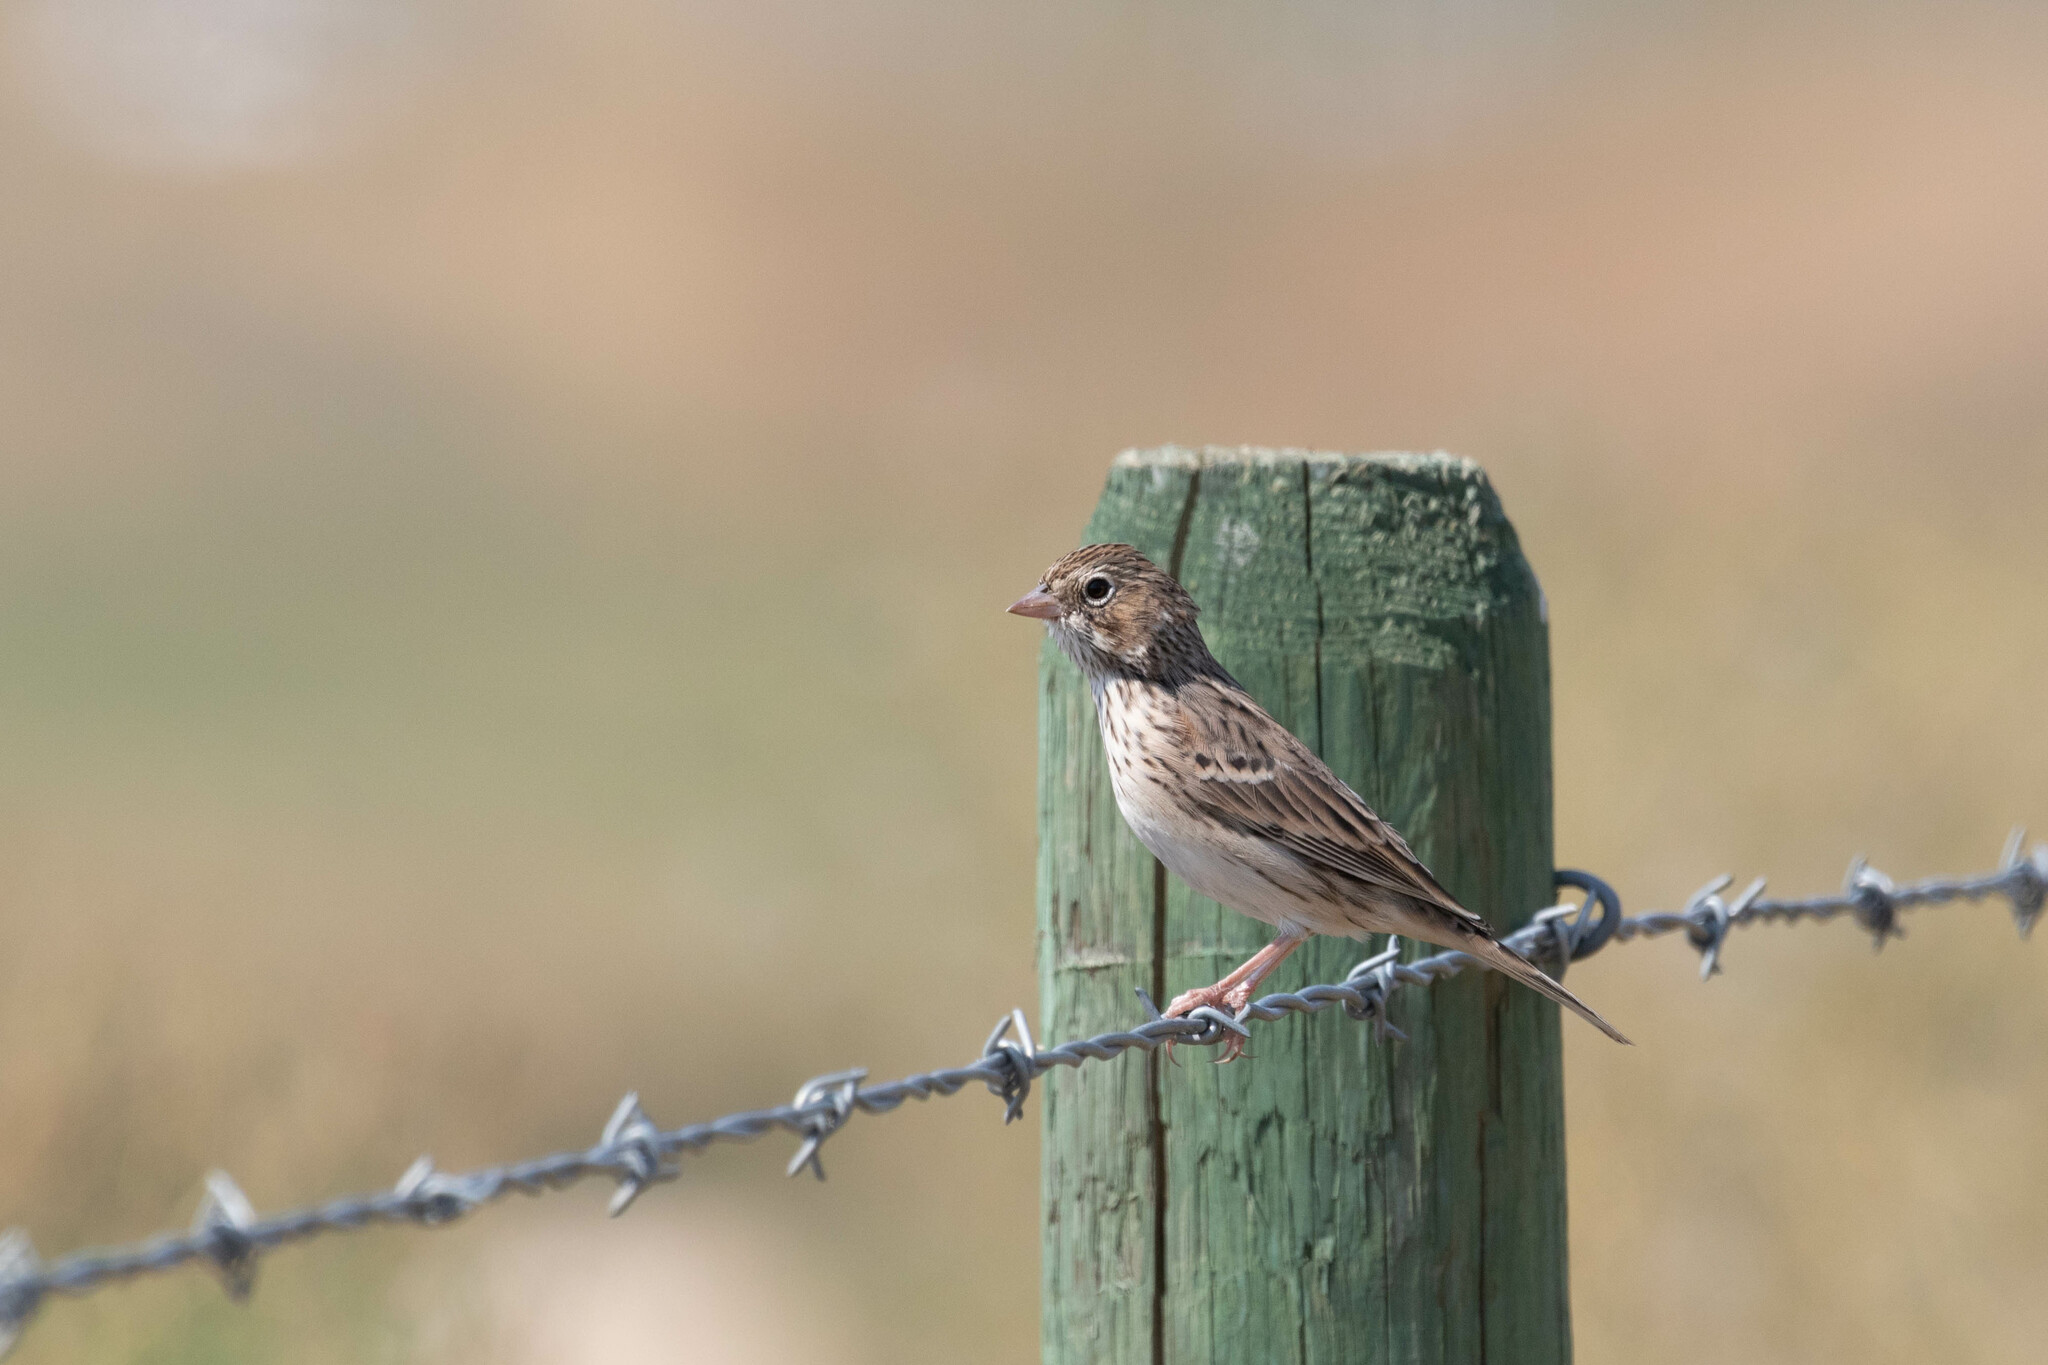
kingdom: Animalia
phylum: Chordata
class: Aves
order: Passeriformes
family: Passerellidae
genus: Pooecetes
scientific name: Pooecetes gramineus
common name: Vesper sparrow
